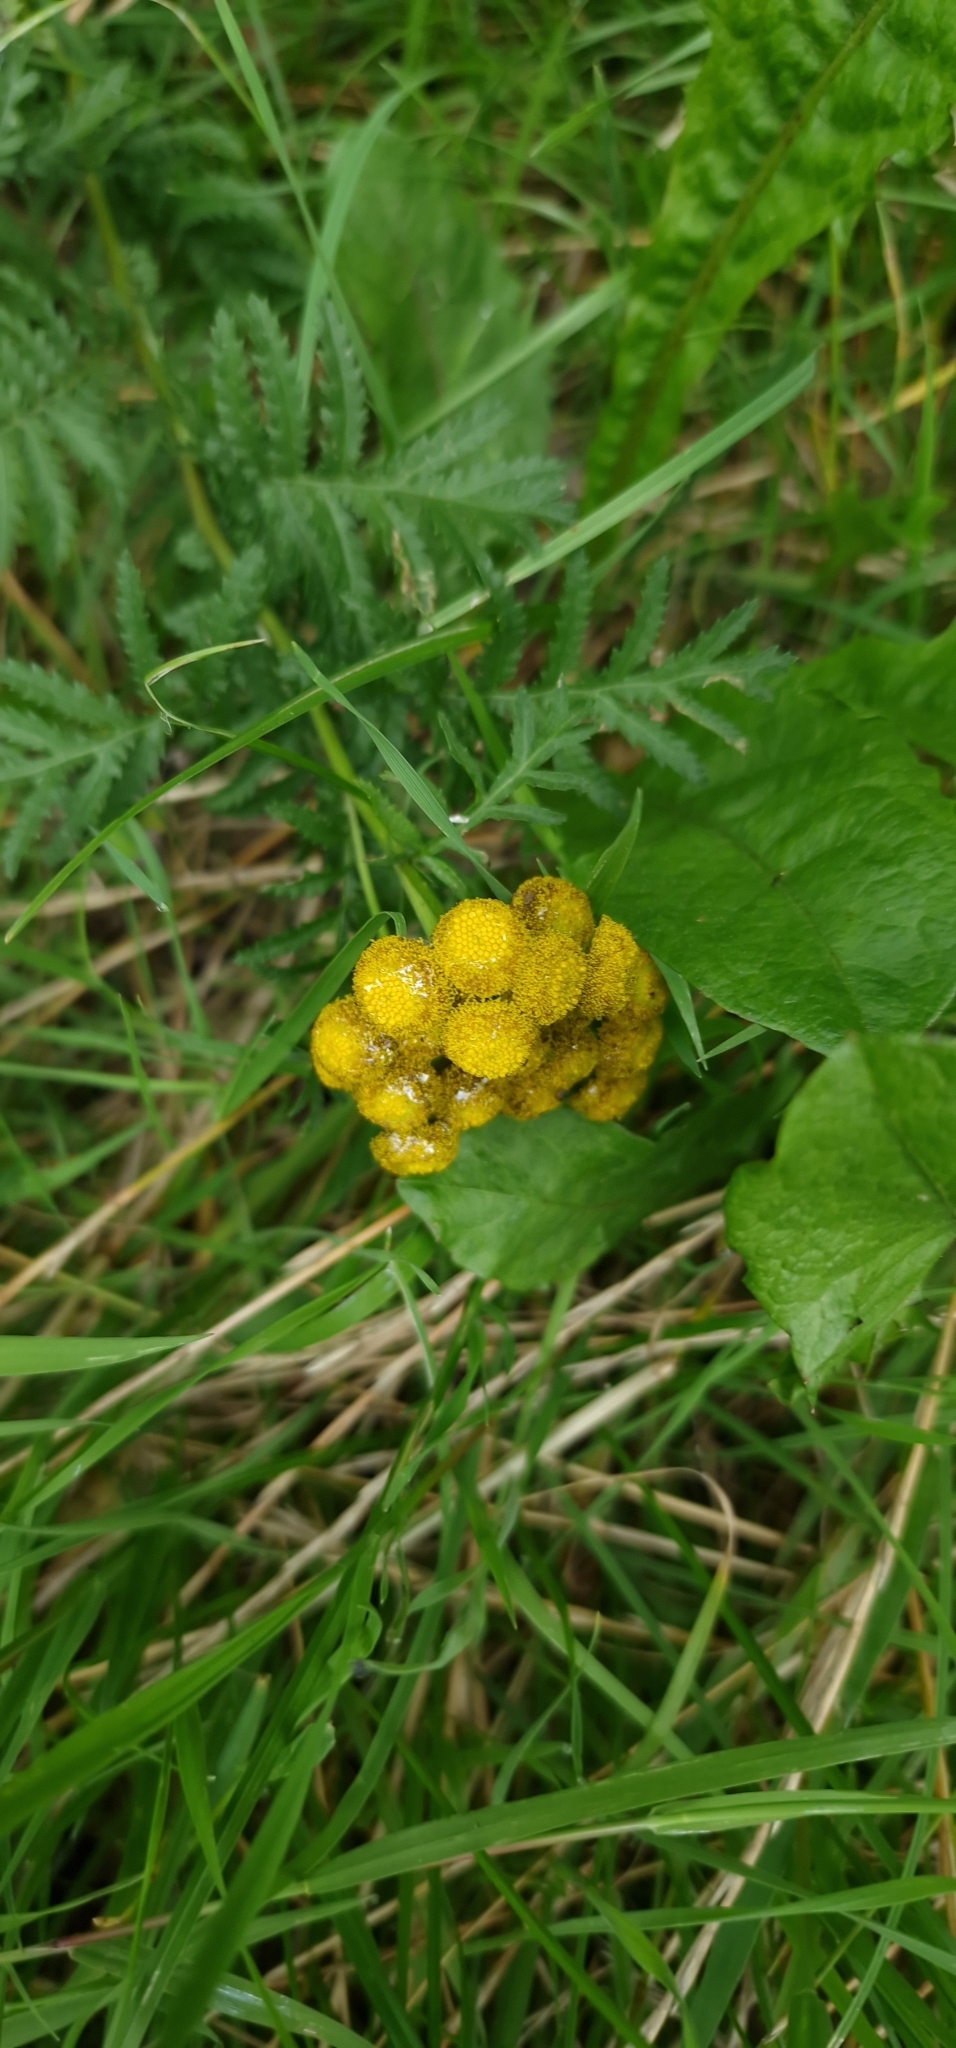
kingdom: Plantae
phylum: Tracheophyta
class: Magnoliopsida
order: Asterales
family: Asteraceae
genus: Tanacetum
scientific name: Tanacetum vulgare
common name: Common tansy
